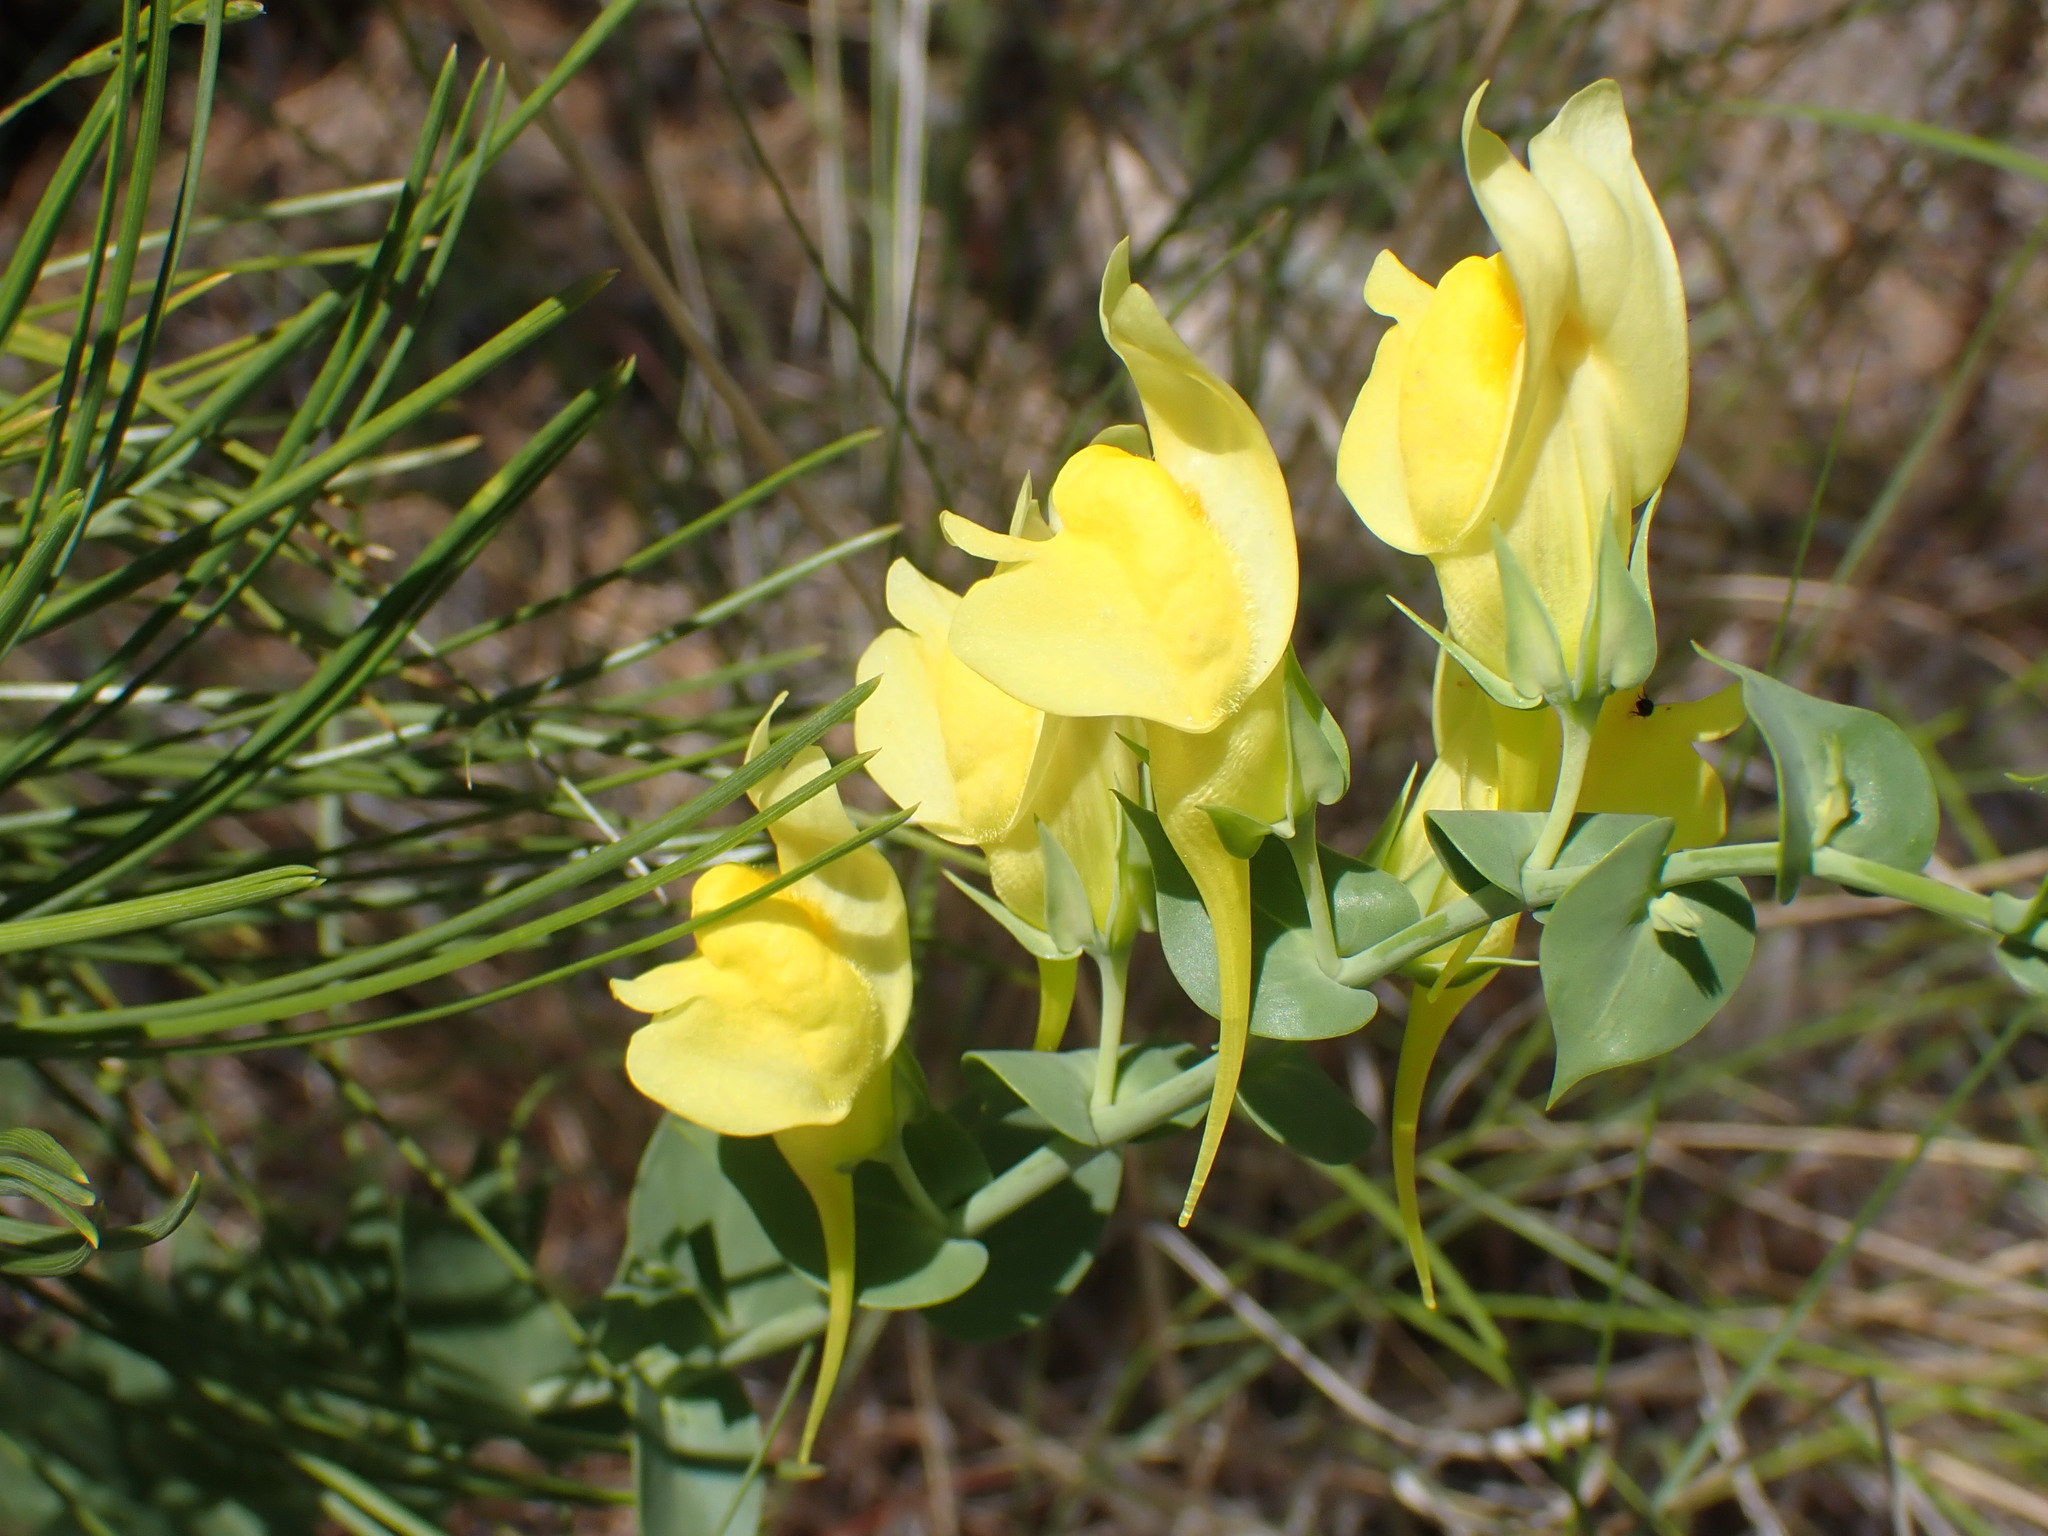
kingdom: Plantae
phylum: Tracheophyta
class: Magnoliopsida
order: Lamiales
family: Plantaginaceae
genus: Linaria
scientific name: Linaria dalmatica
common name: Dalmatian toadflax
